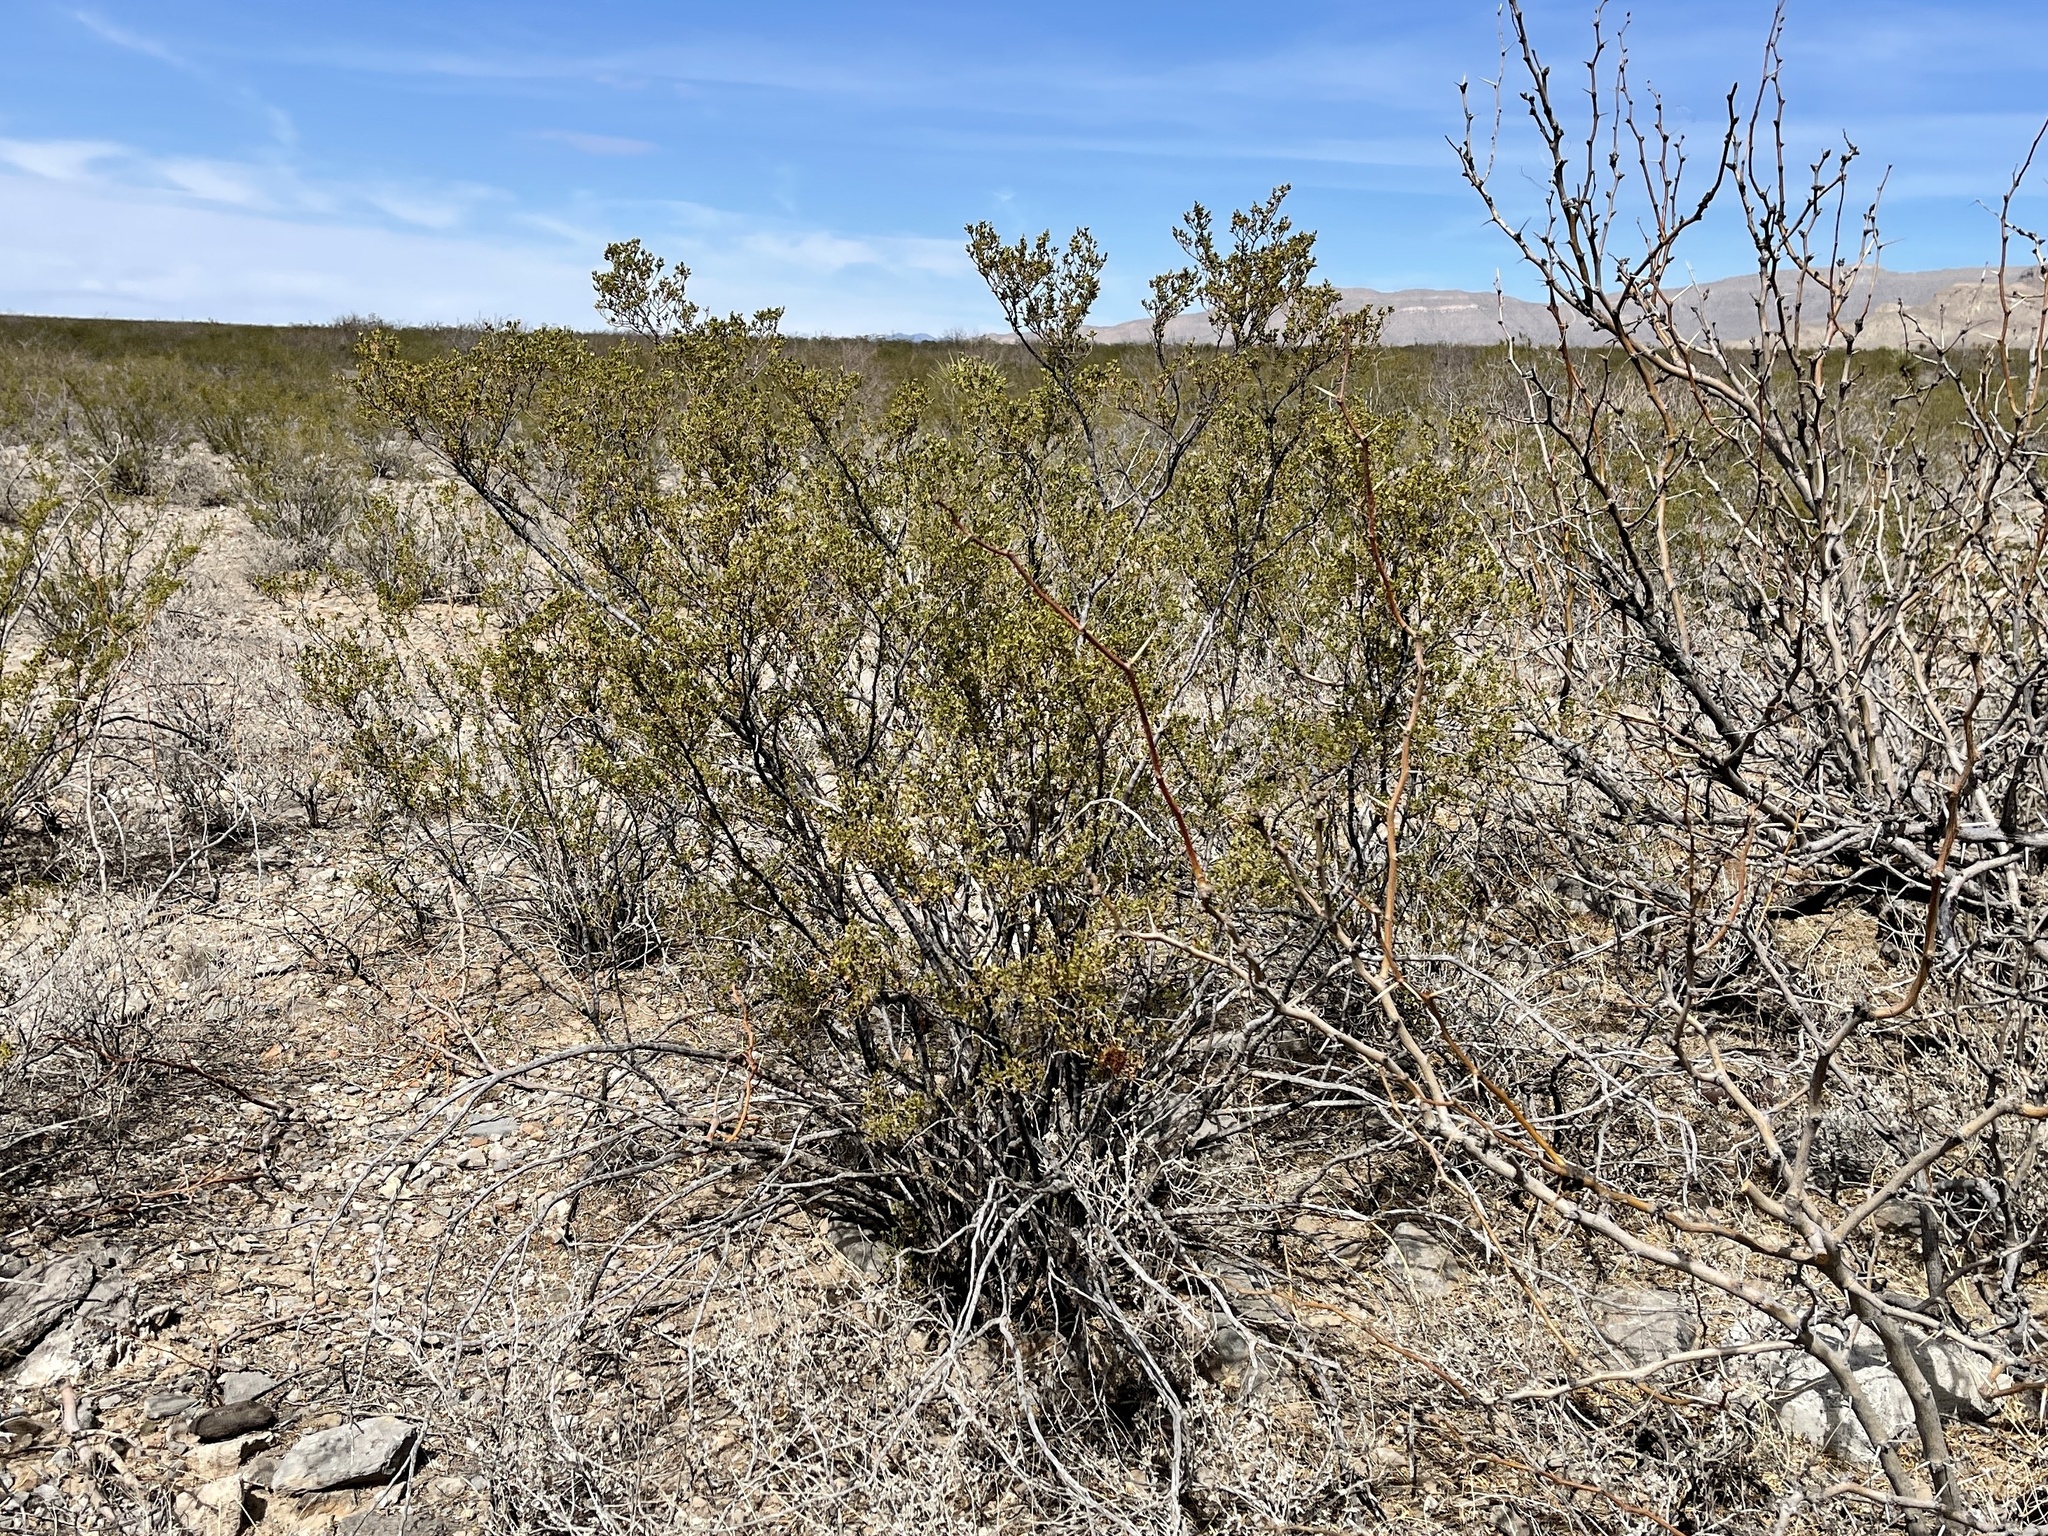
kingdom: Plantae
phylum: Tracheophyta
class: Magnoliopsida
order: Zygophyllales
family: Zygophyllaceae
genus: Larrea
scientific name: Larrea tridentata
